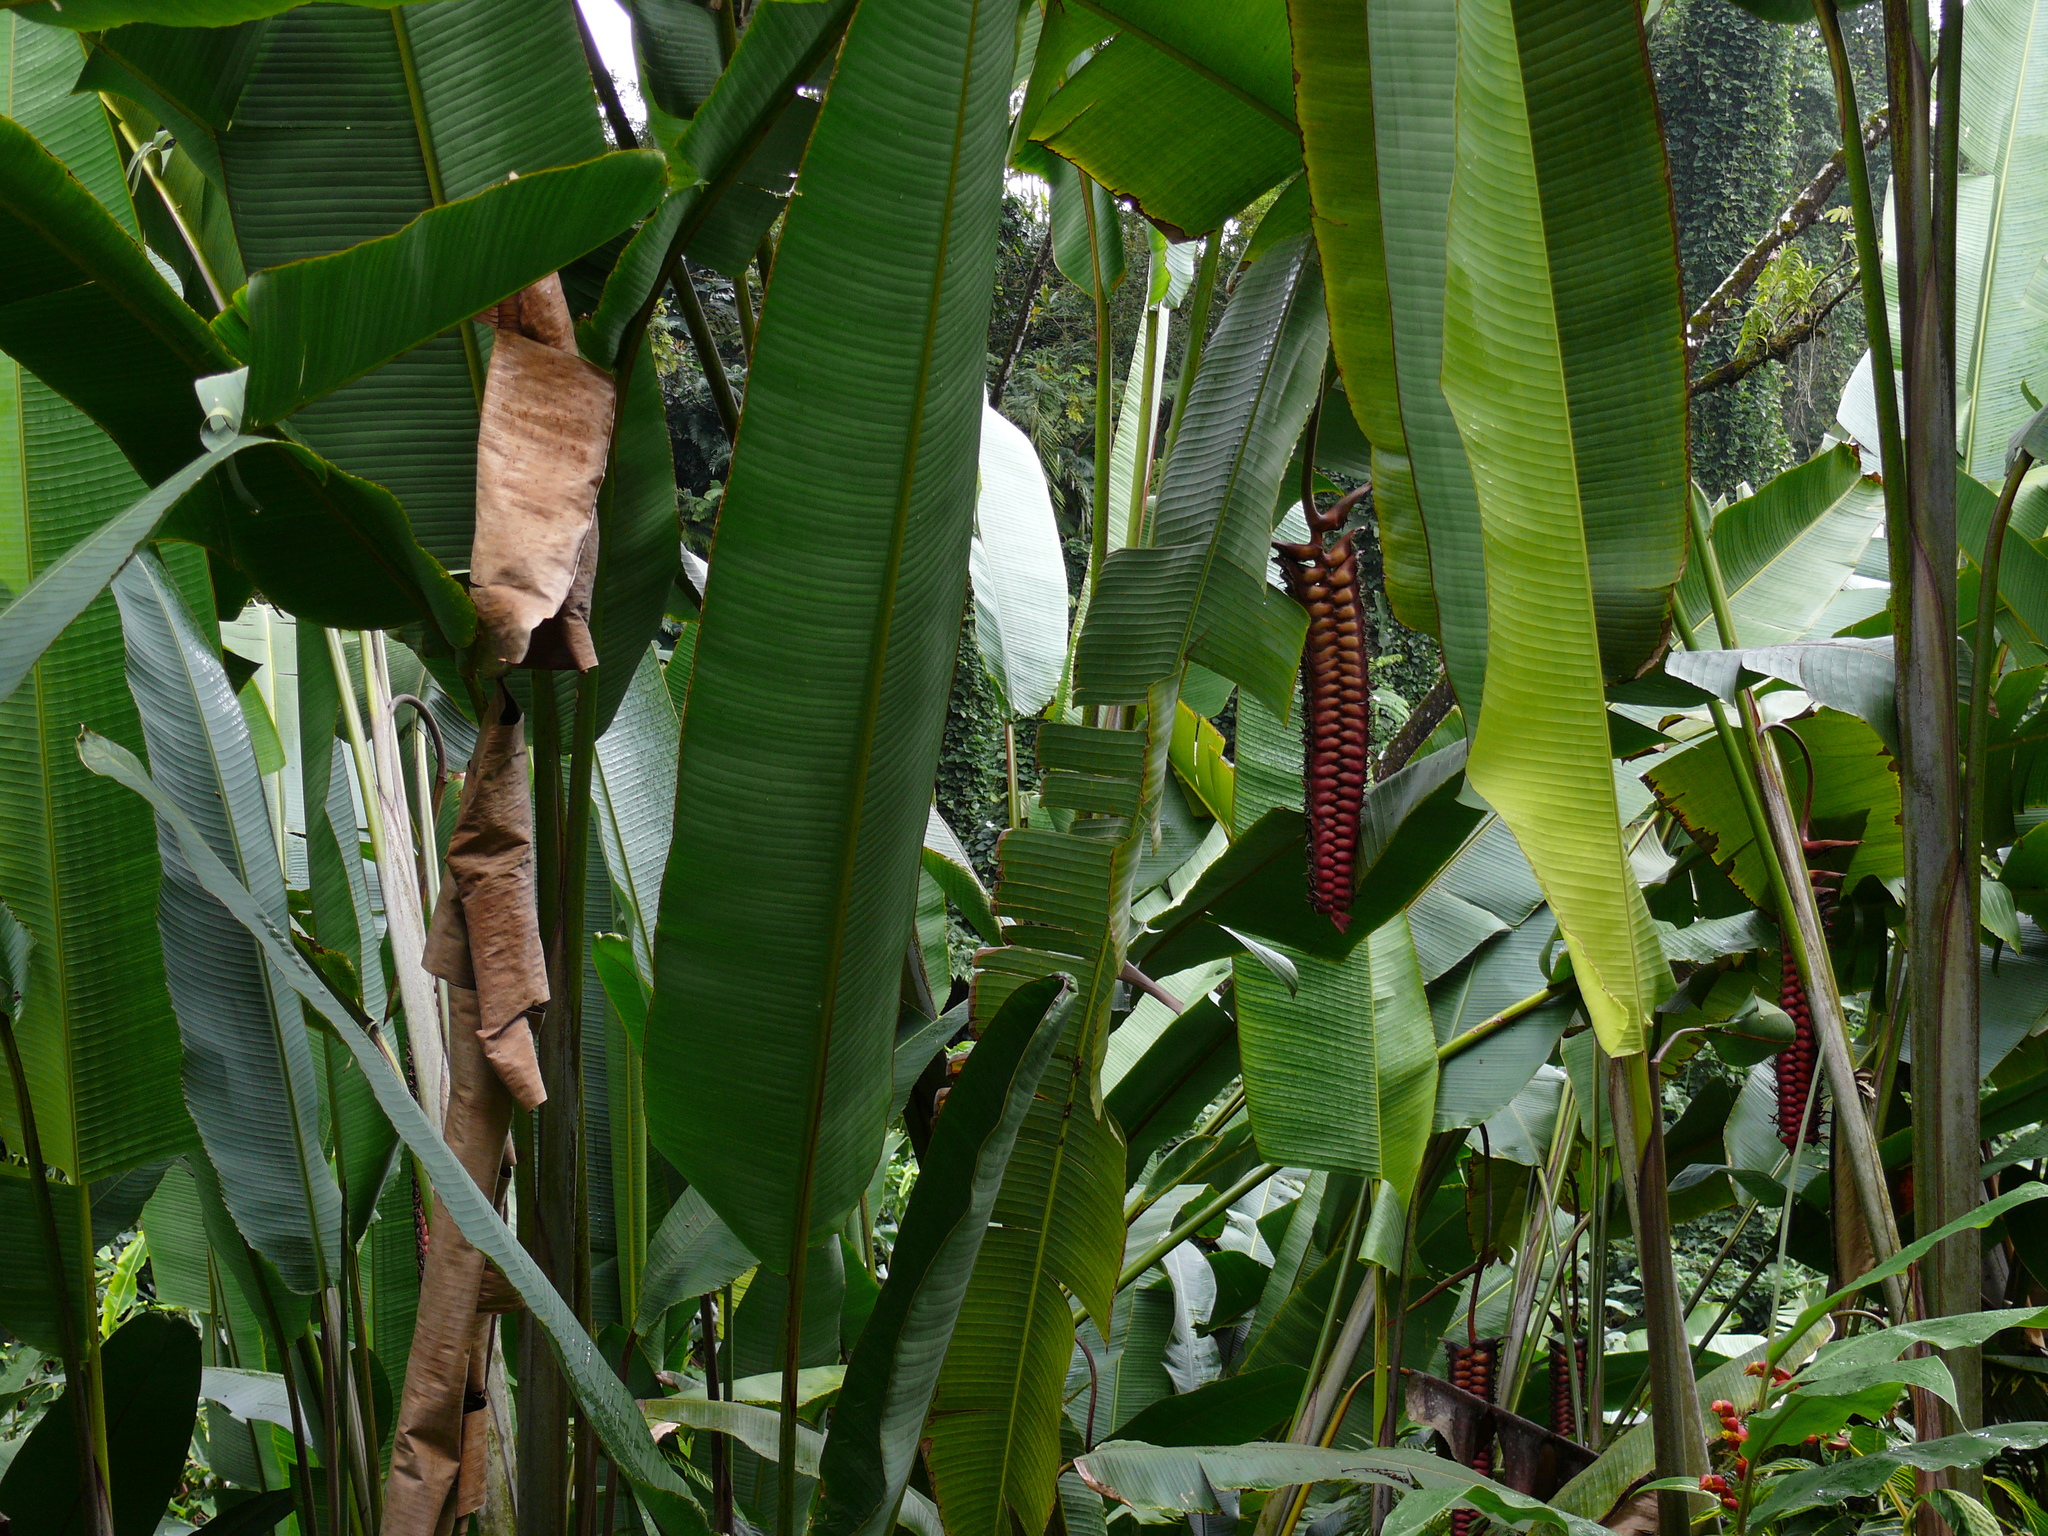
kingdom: Plantae
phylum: Tracheophyta
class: Liliopsida
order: Zingiberales
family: Heliconiaceae
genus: Heliconia
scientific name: Heliconia mariae
